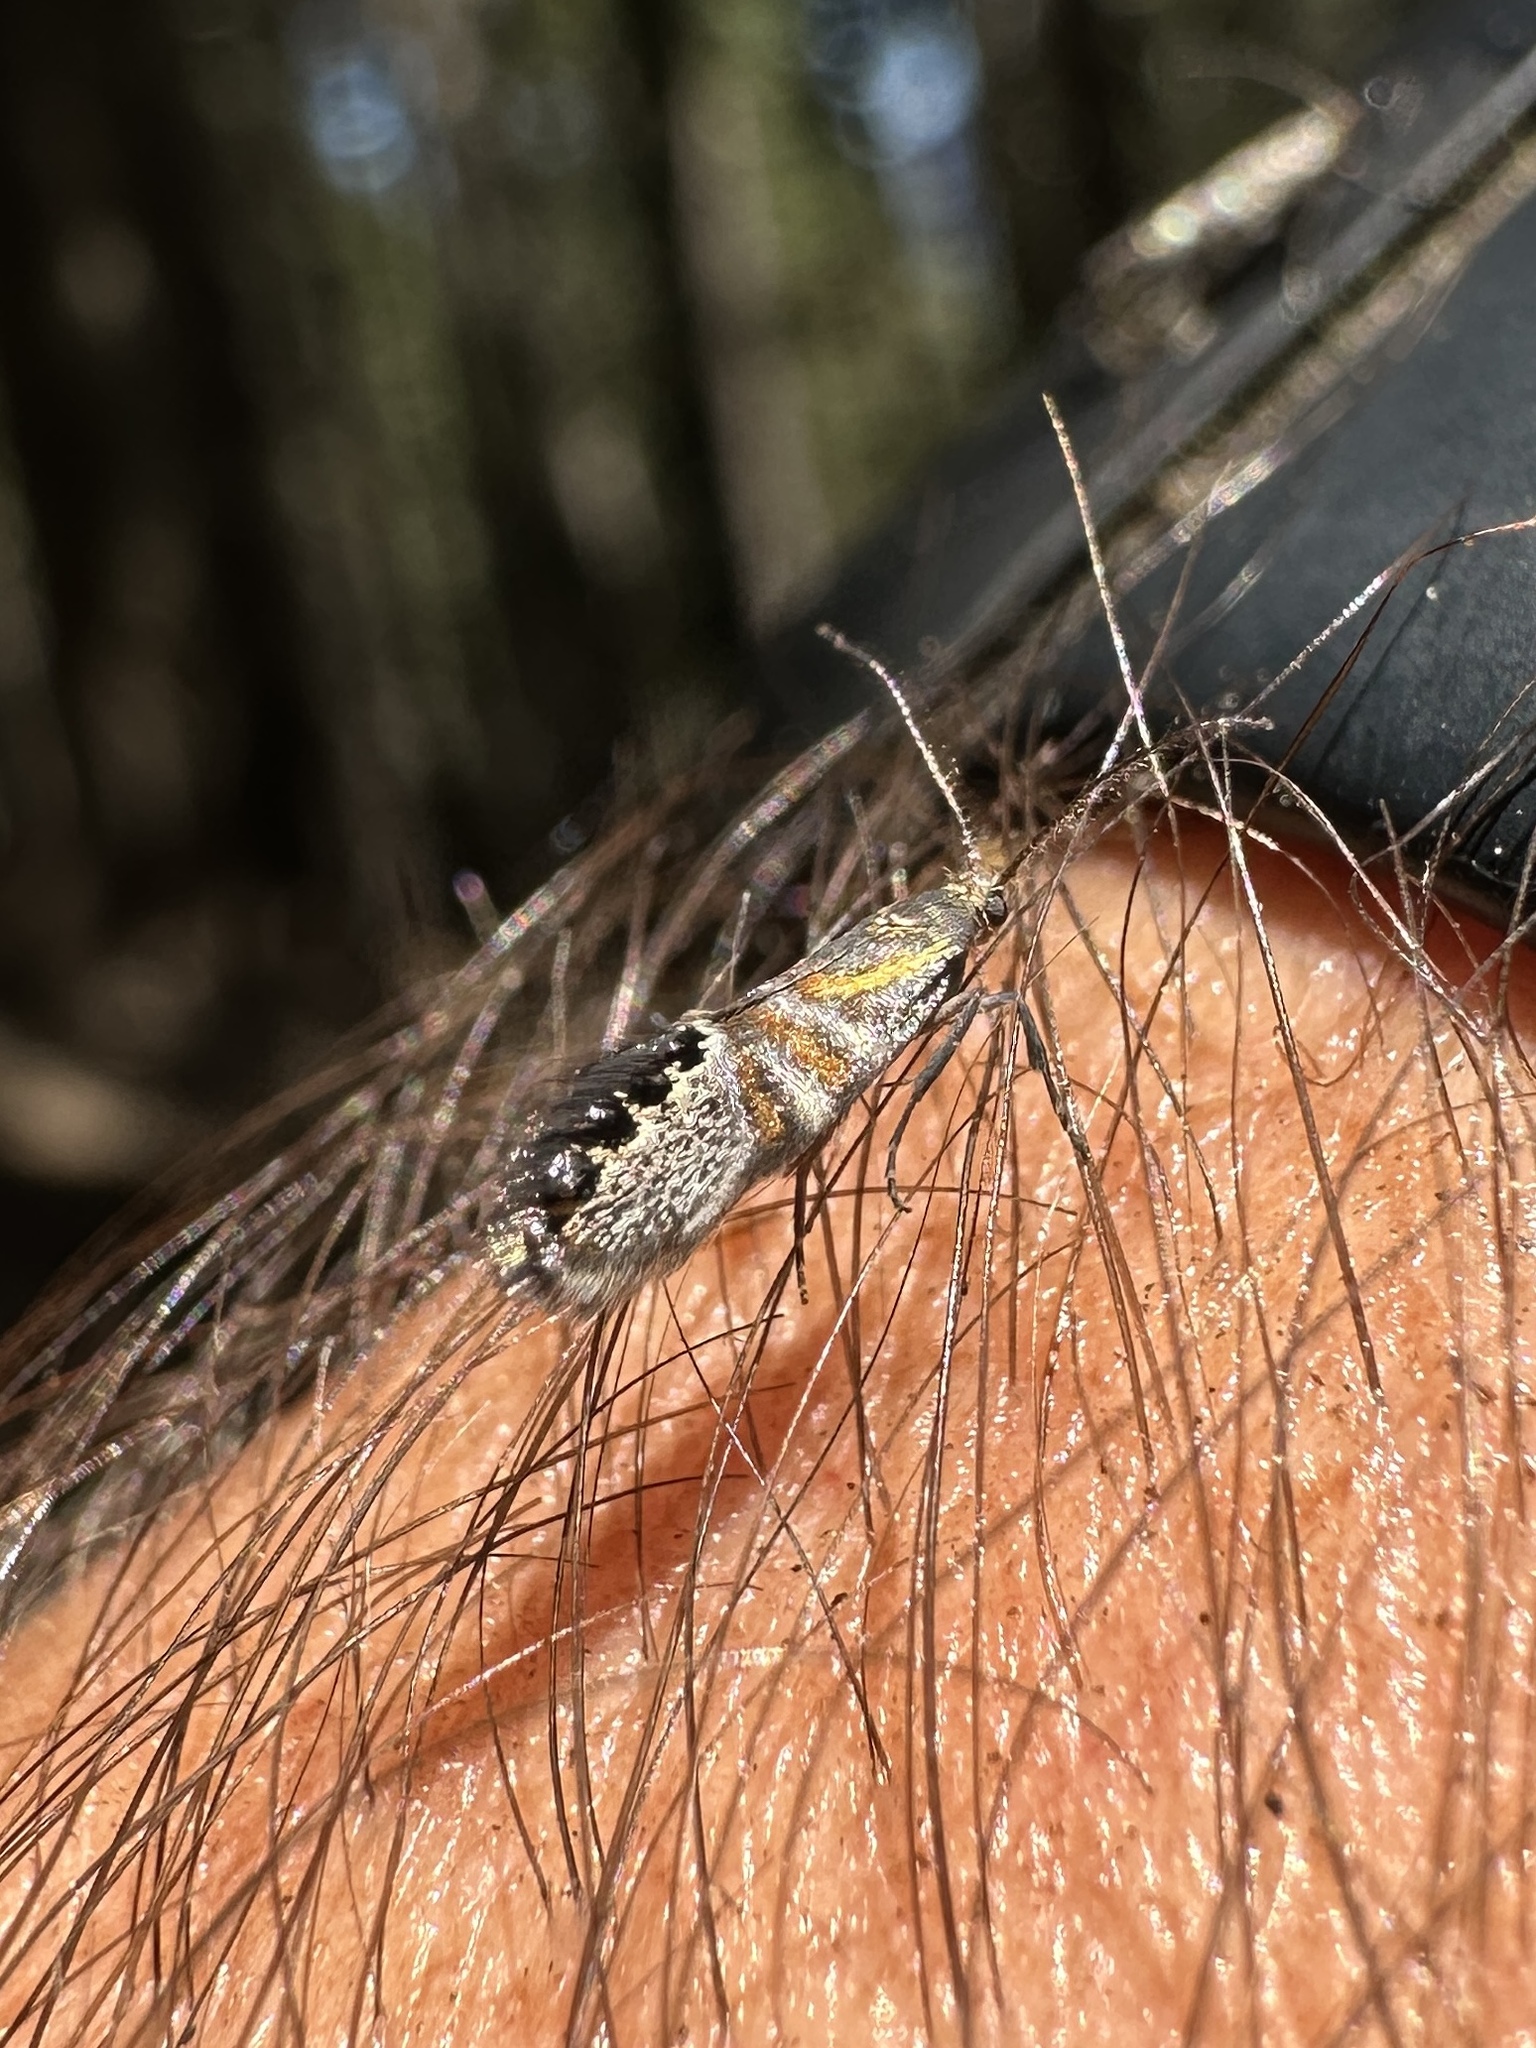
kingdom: Animalia
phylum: Arthropoda
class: Insecta
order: Lepidoptera
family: Oecophoridae
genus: Fabiola
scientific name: Fabiola quinqueferella
